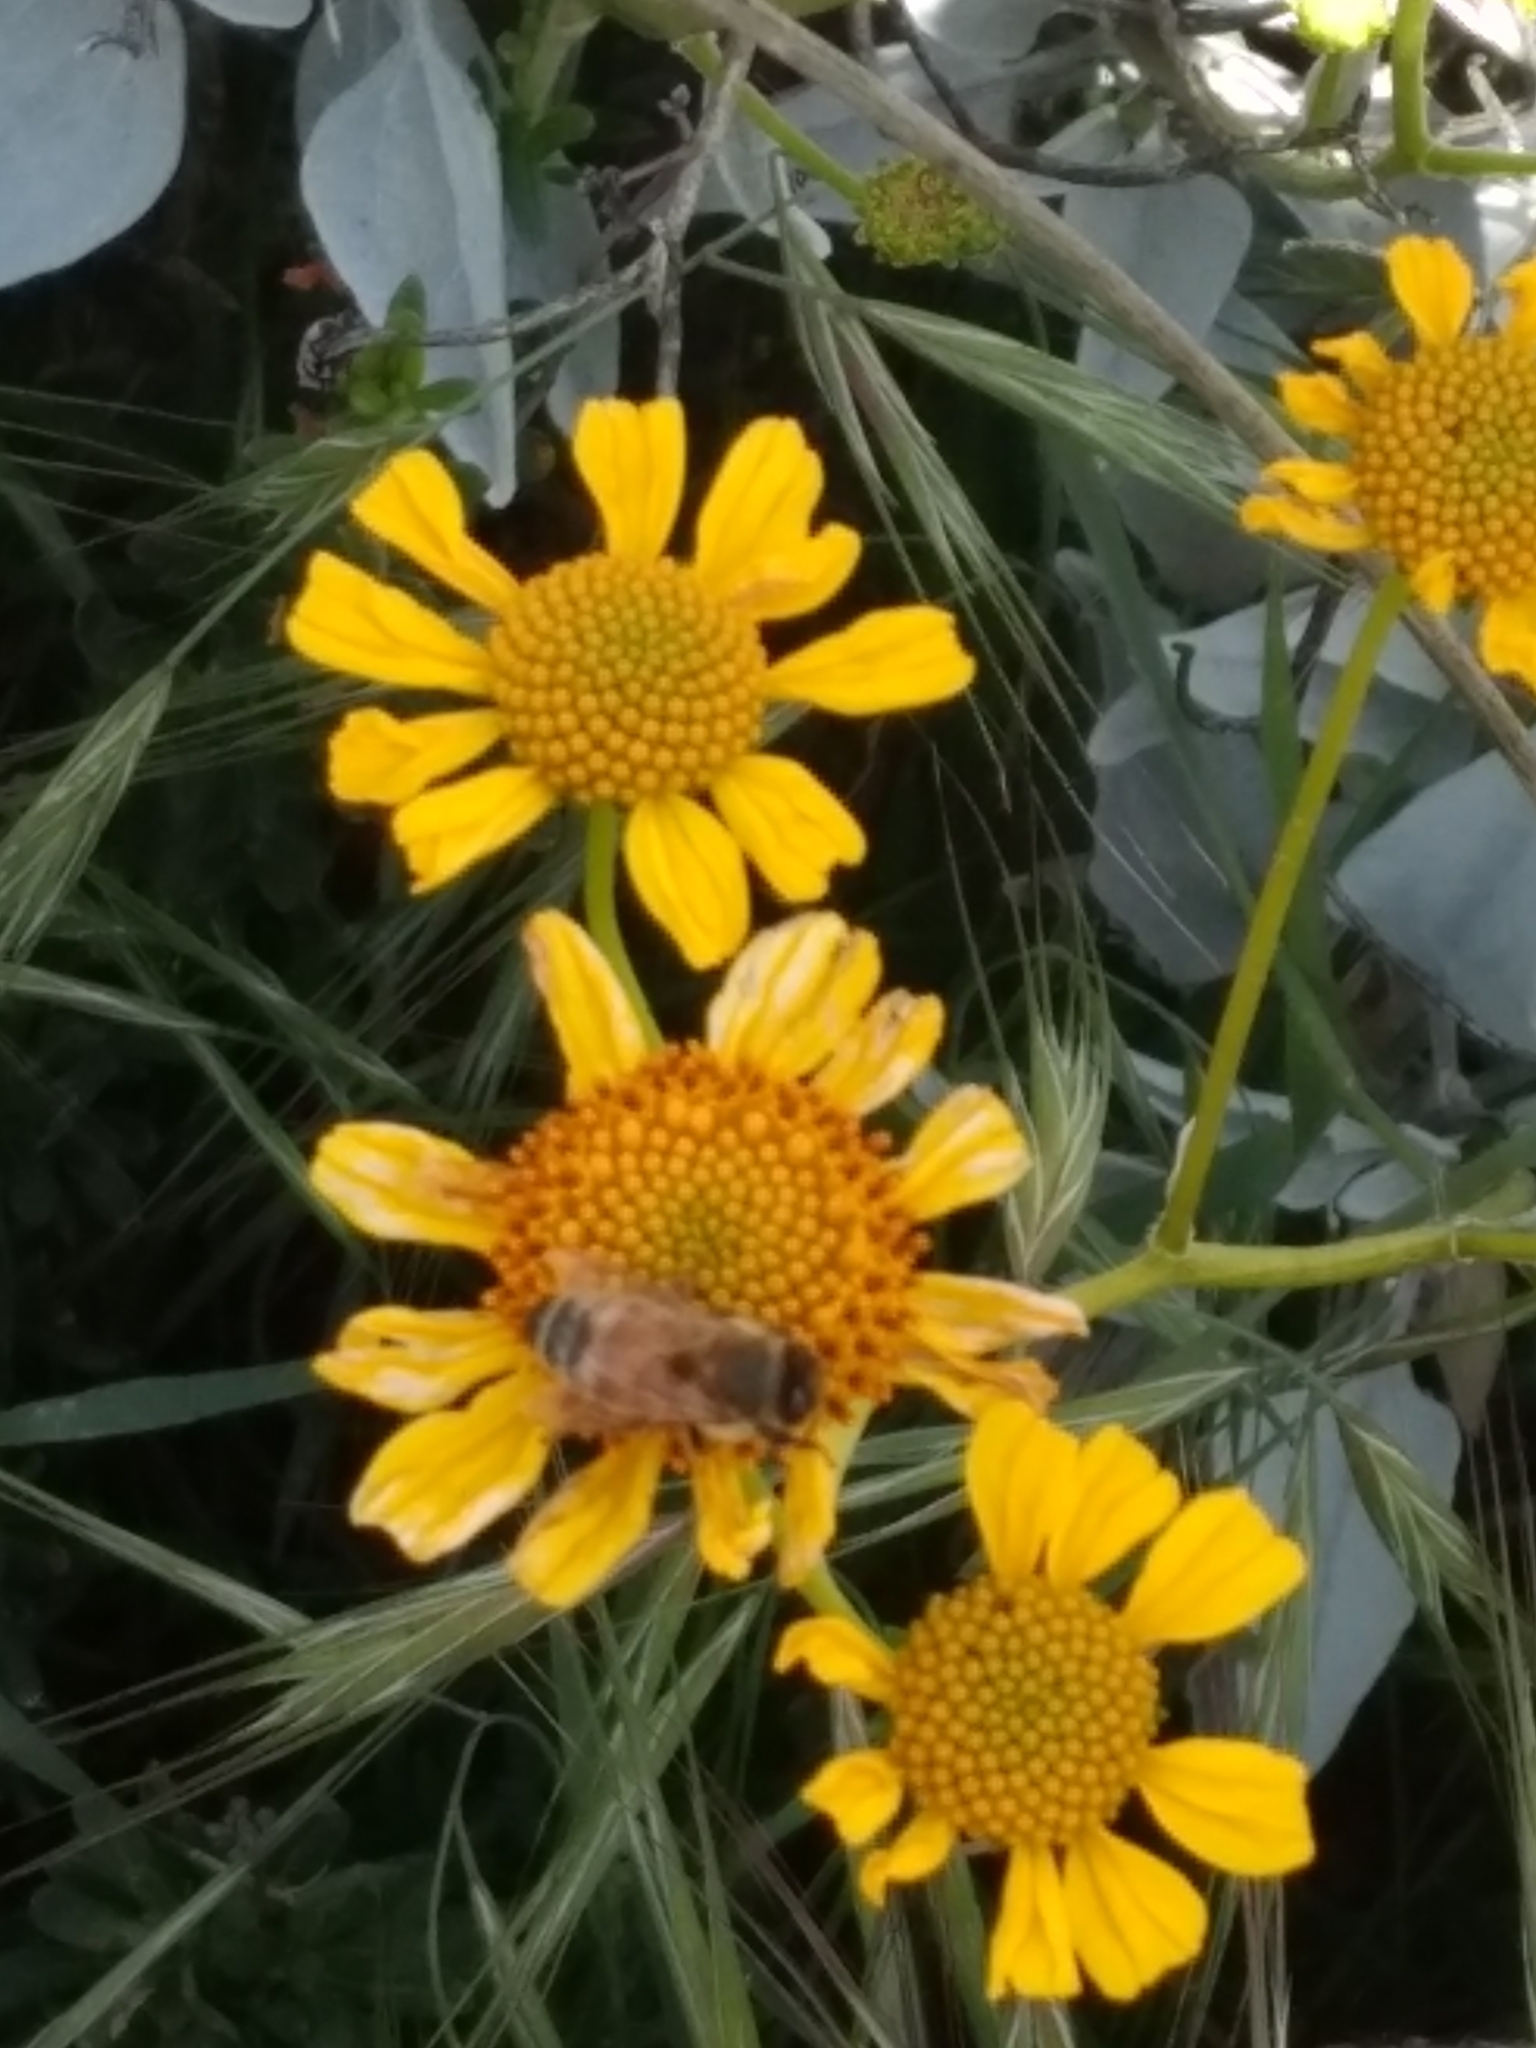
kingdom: Plantae
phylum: Tracheophyta
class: Magnoliopsida
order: Asterales
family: Asteraceae
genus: Encelia
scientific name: Encelia farinosa
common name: Brittlebush
